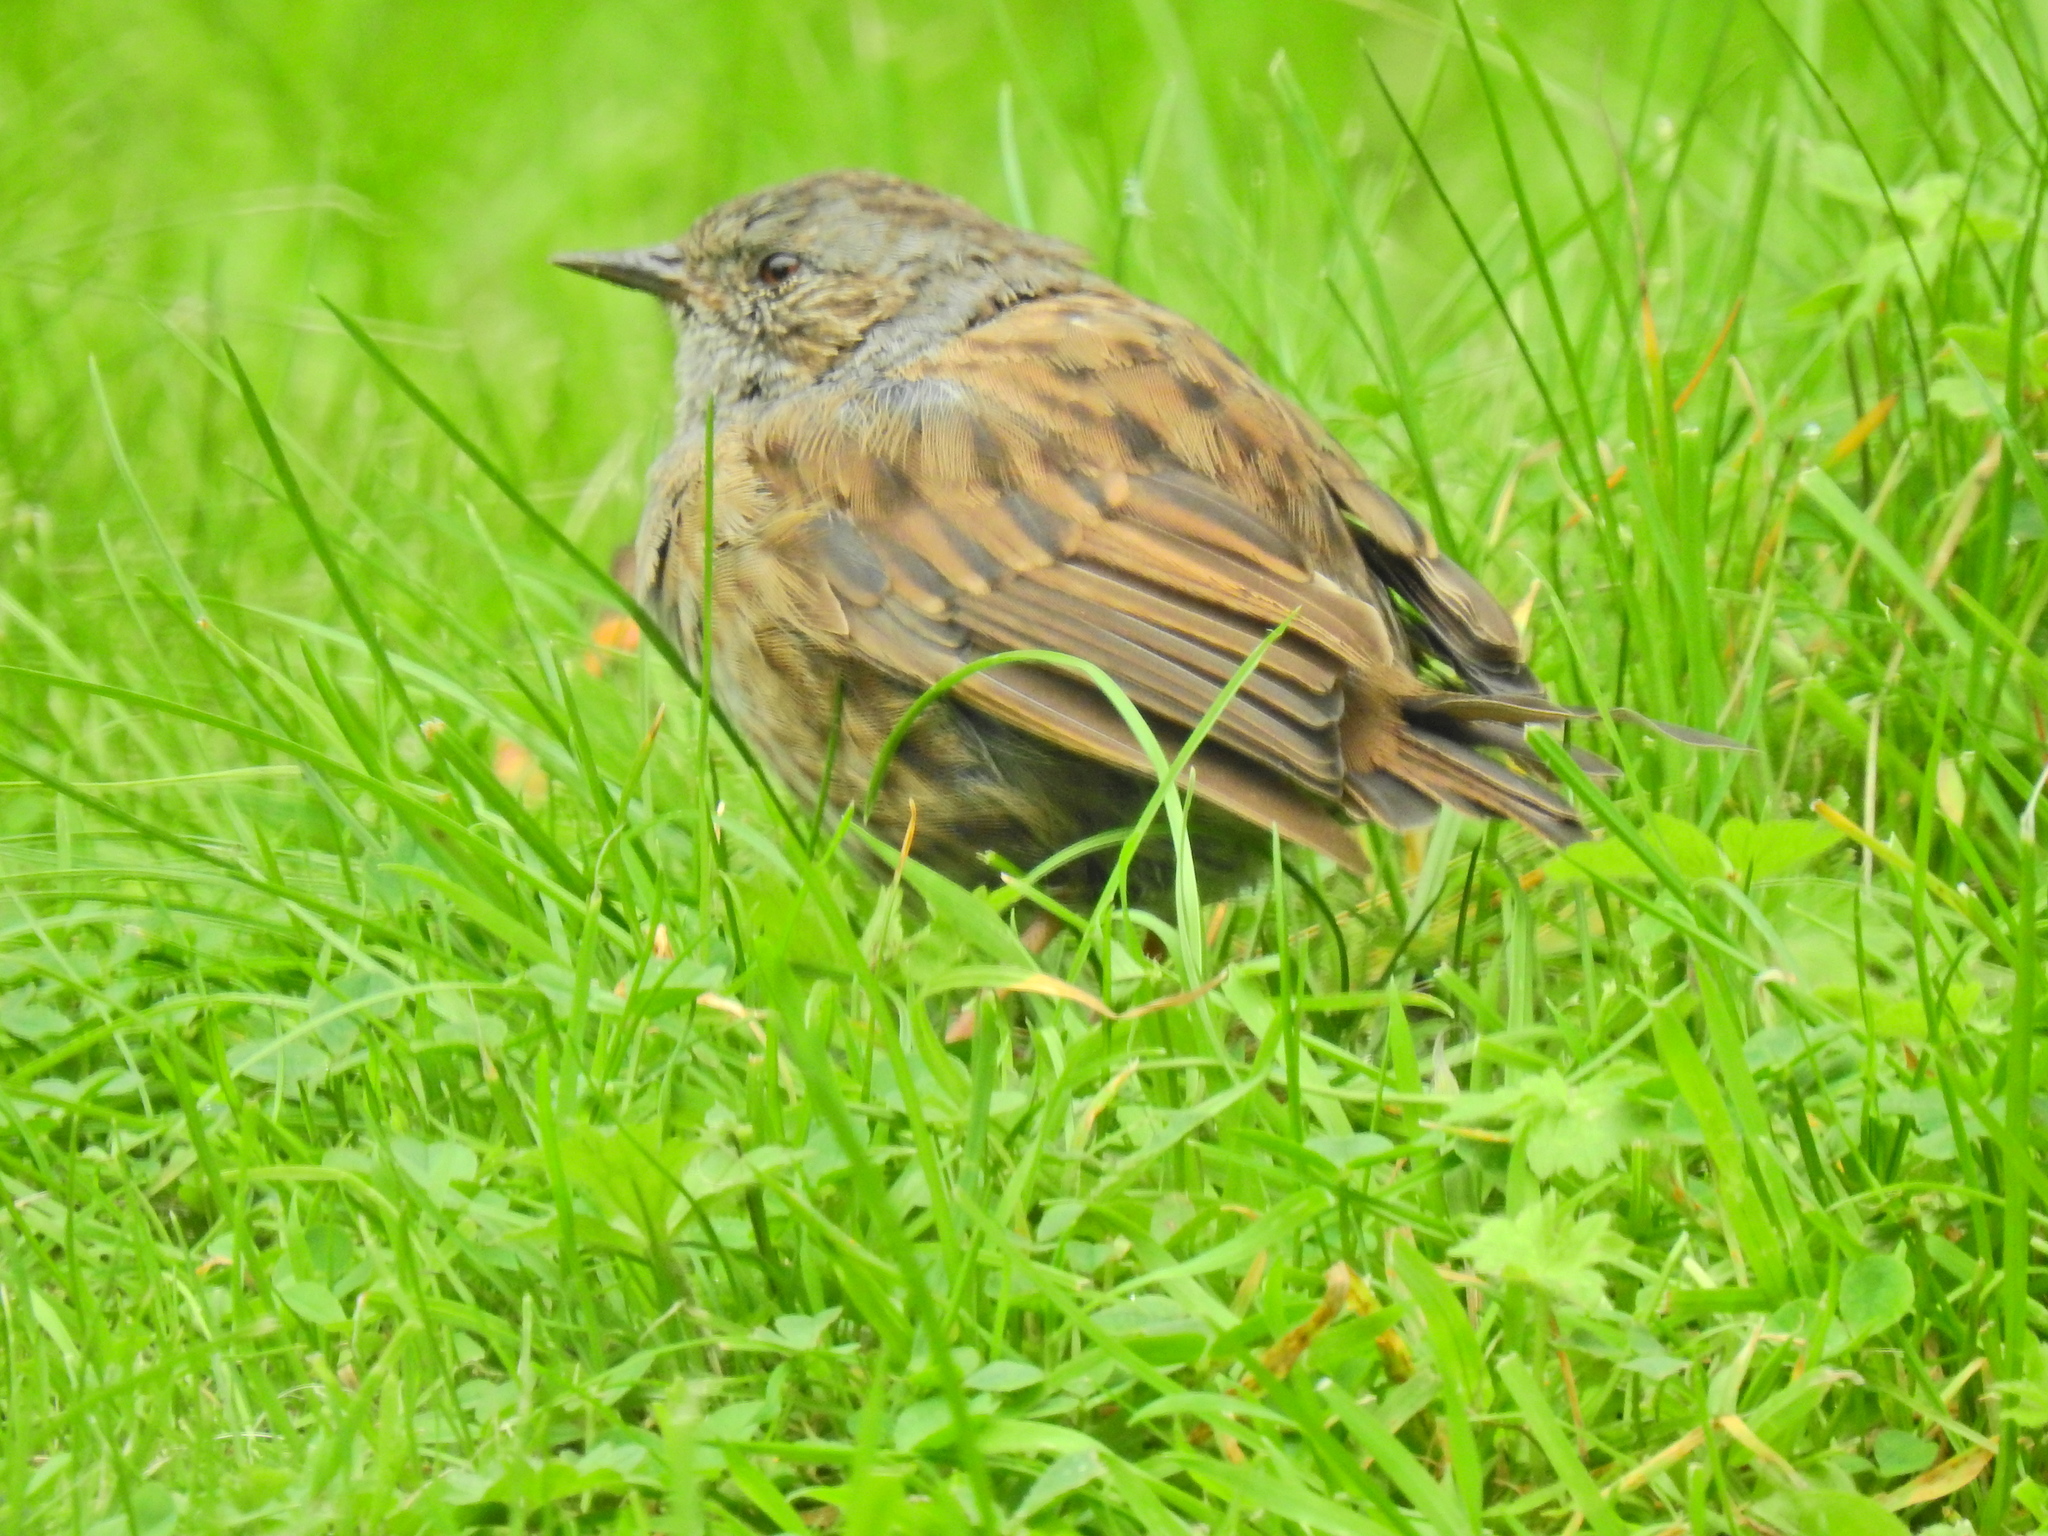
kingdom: Animalia
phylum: Chordata
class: Aves
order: Passeriformes
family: Prunellidae
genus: Prunella
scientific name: Prunella modularis
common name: Dunnock
